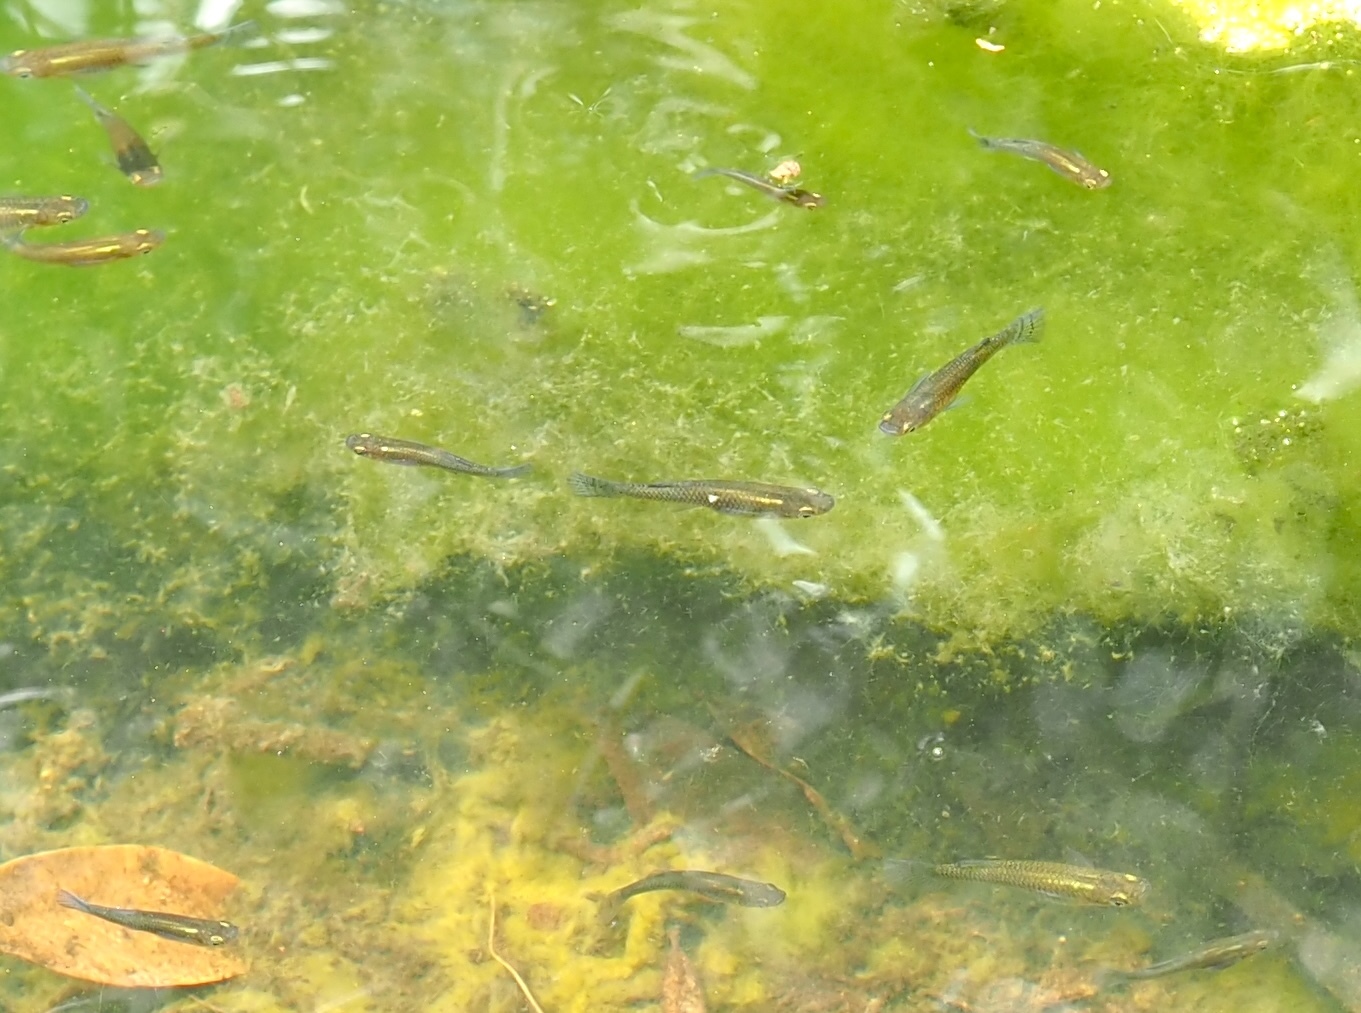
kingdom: Animalia
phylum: Chordata
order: Cyprinodontiformes
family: Poeciliidae
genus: Gambusia
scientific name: Gambusia holbrooki
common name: Eastern mosquitofish
